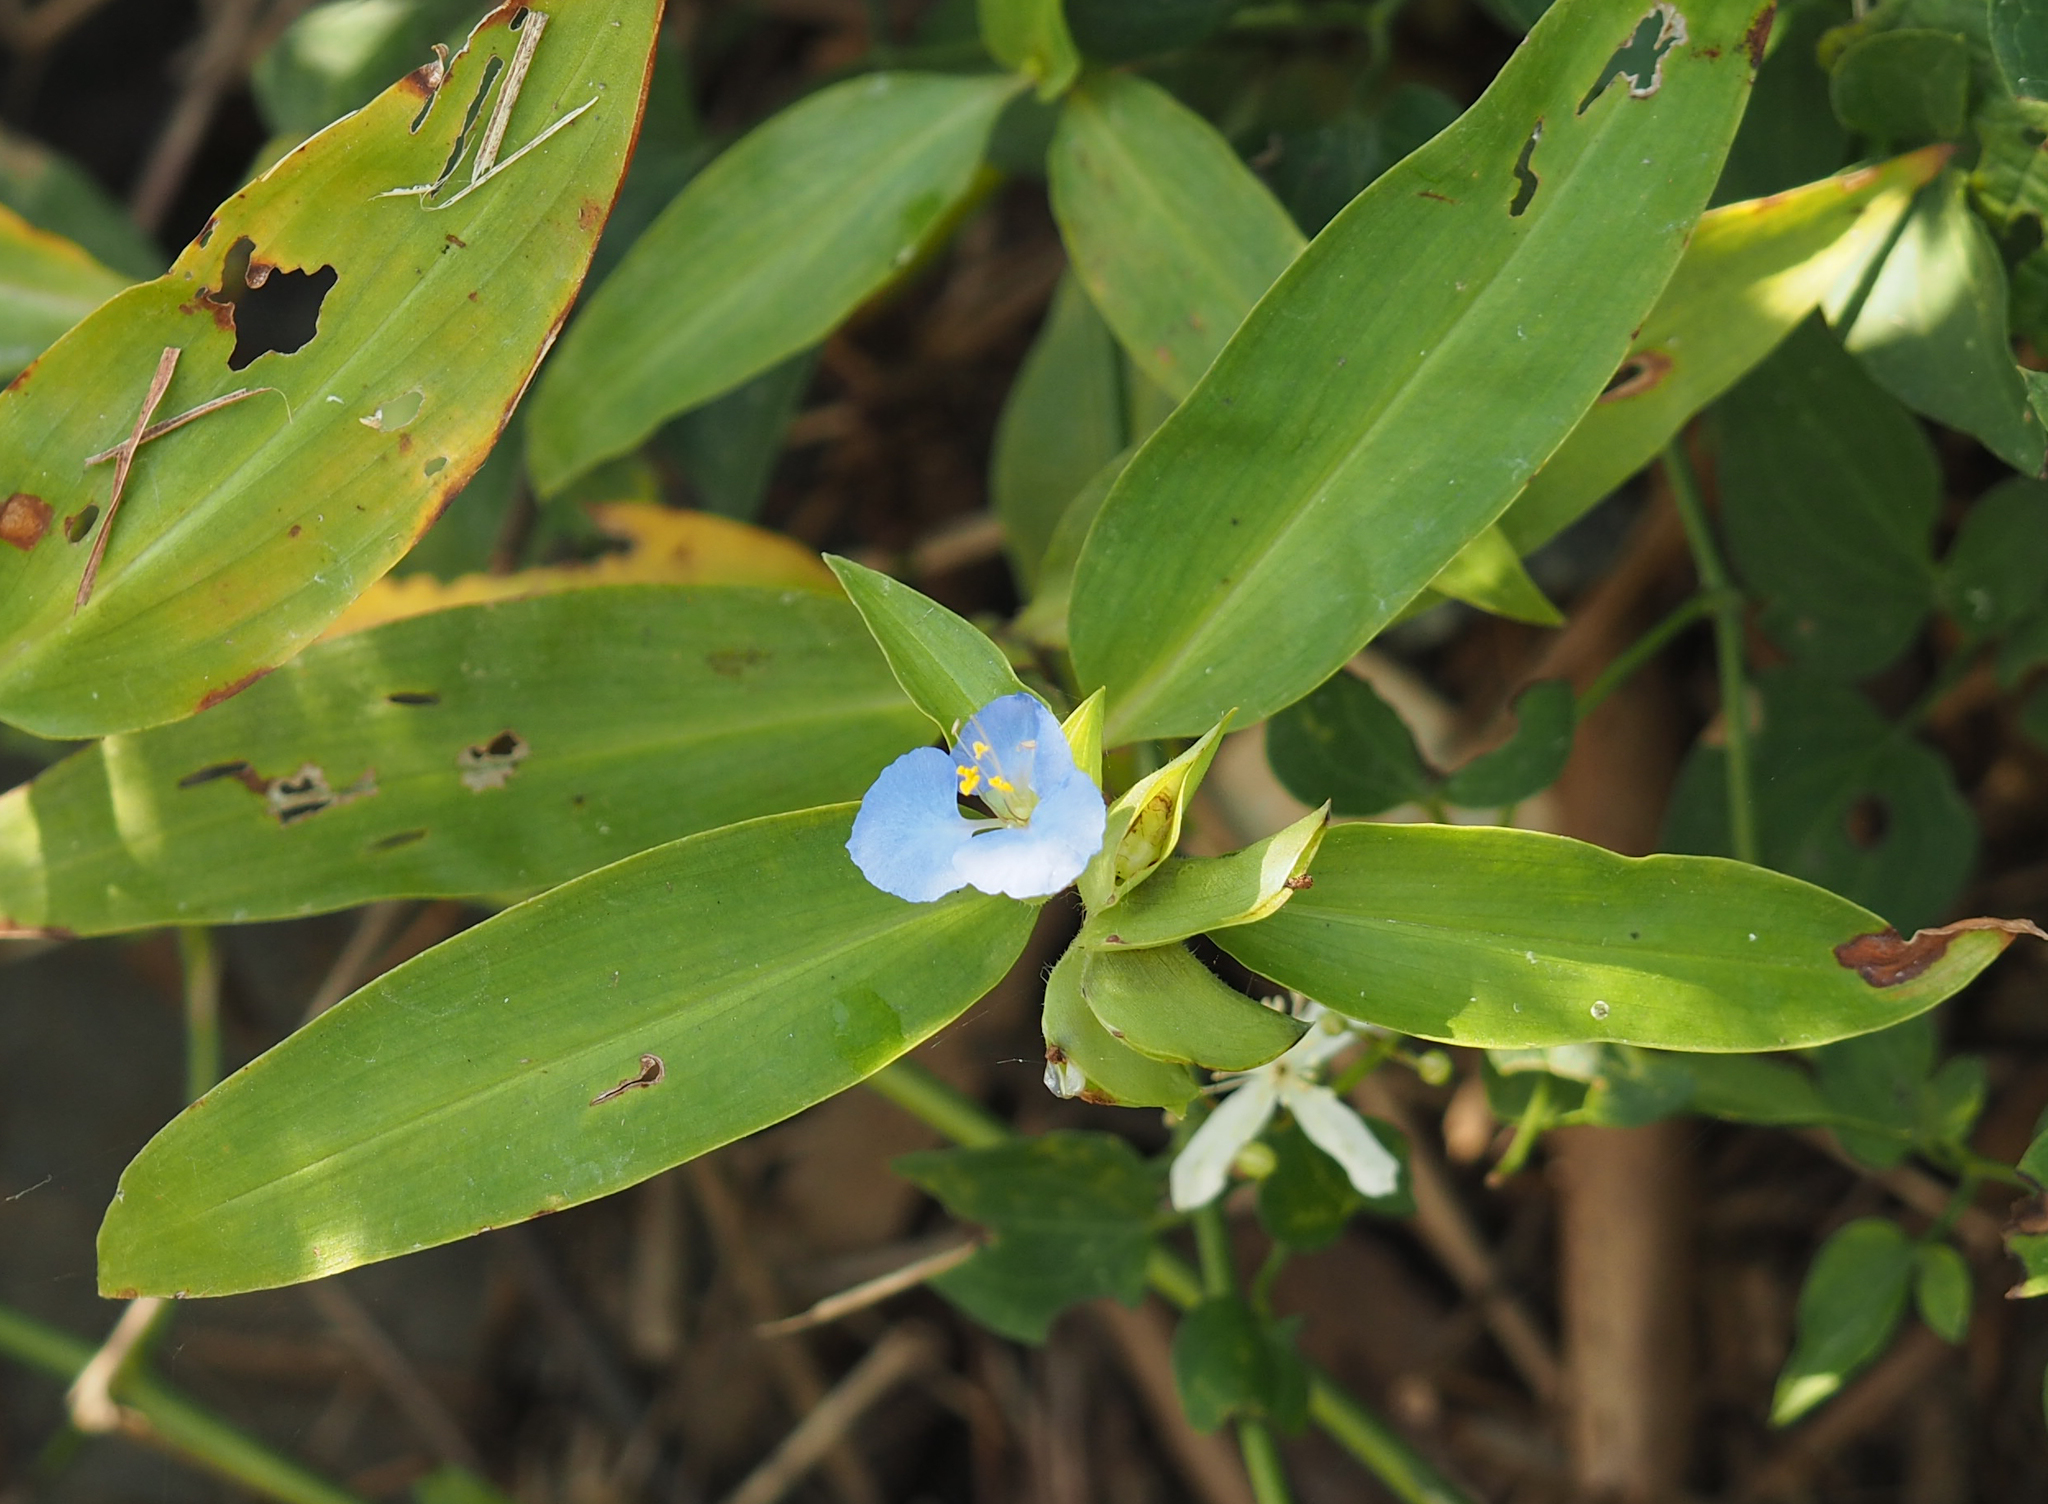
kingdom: Plantae
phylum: Tracheophyta
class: Liliopsida
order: Commelinales
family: Commelinaceae
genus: Commelina
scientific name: Commelina virginica
